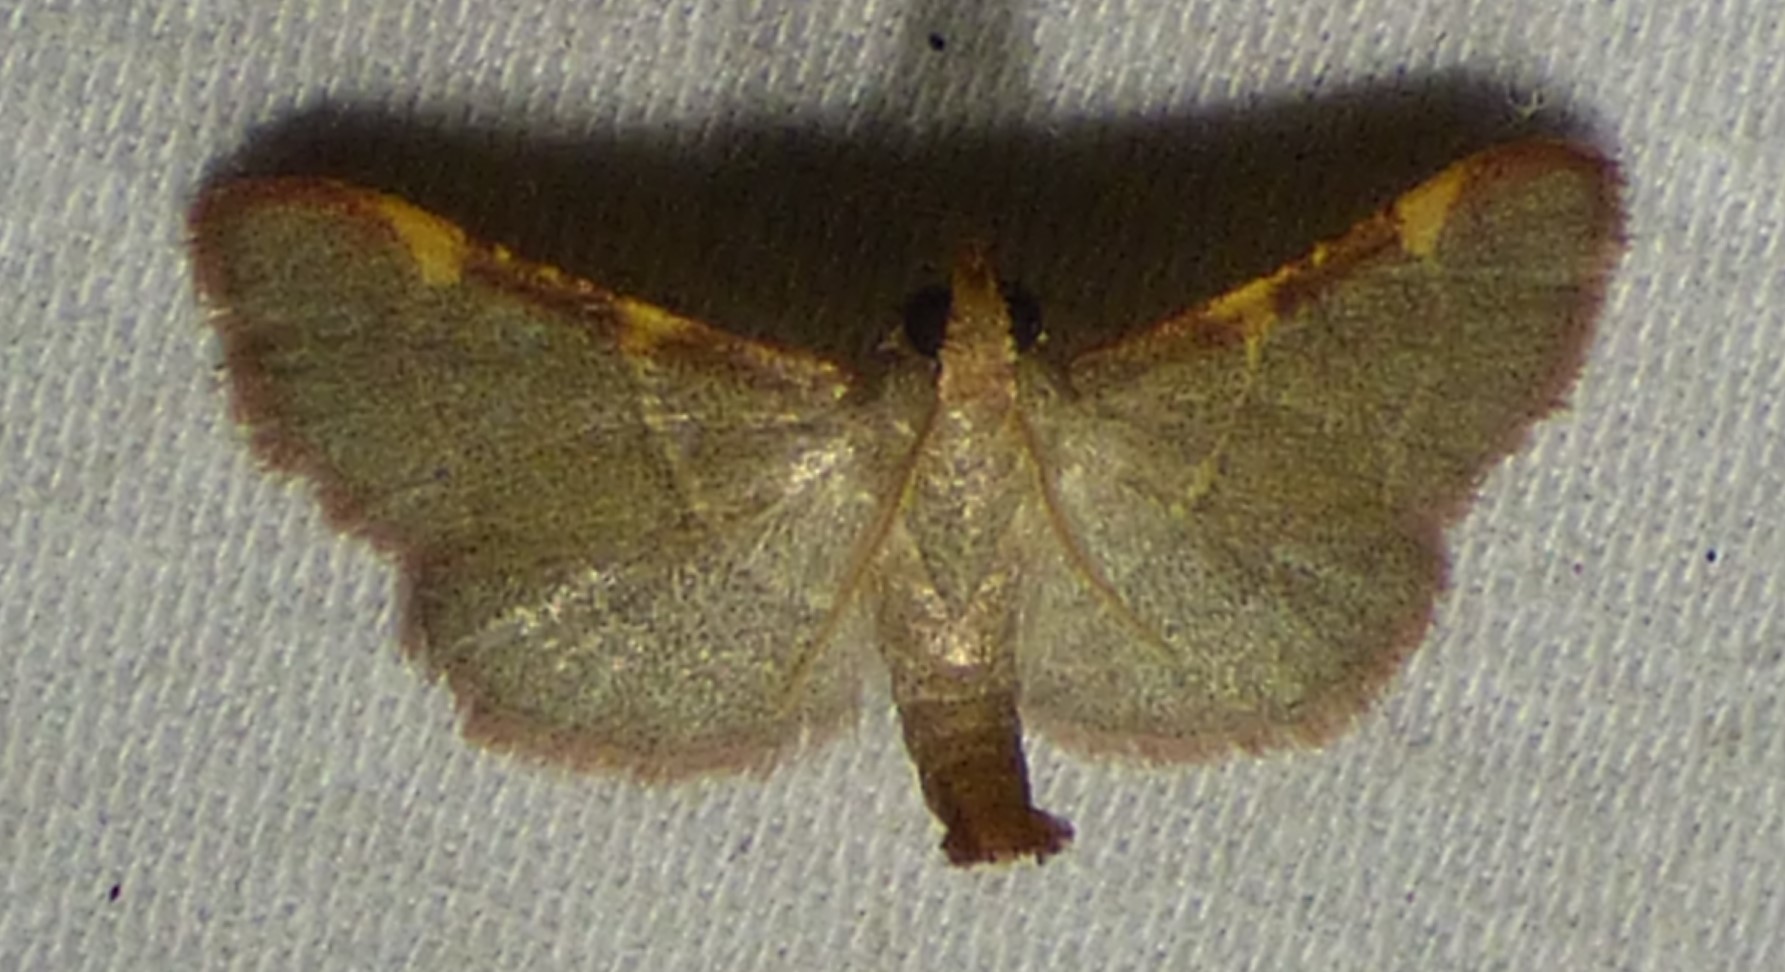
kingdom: Animalia
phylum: Arthropoda
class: Insecta
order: Lepidoptera
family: Pyralidae
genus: Hypsopygia
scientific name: Hypsopygia binodulalis
